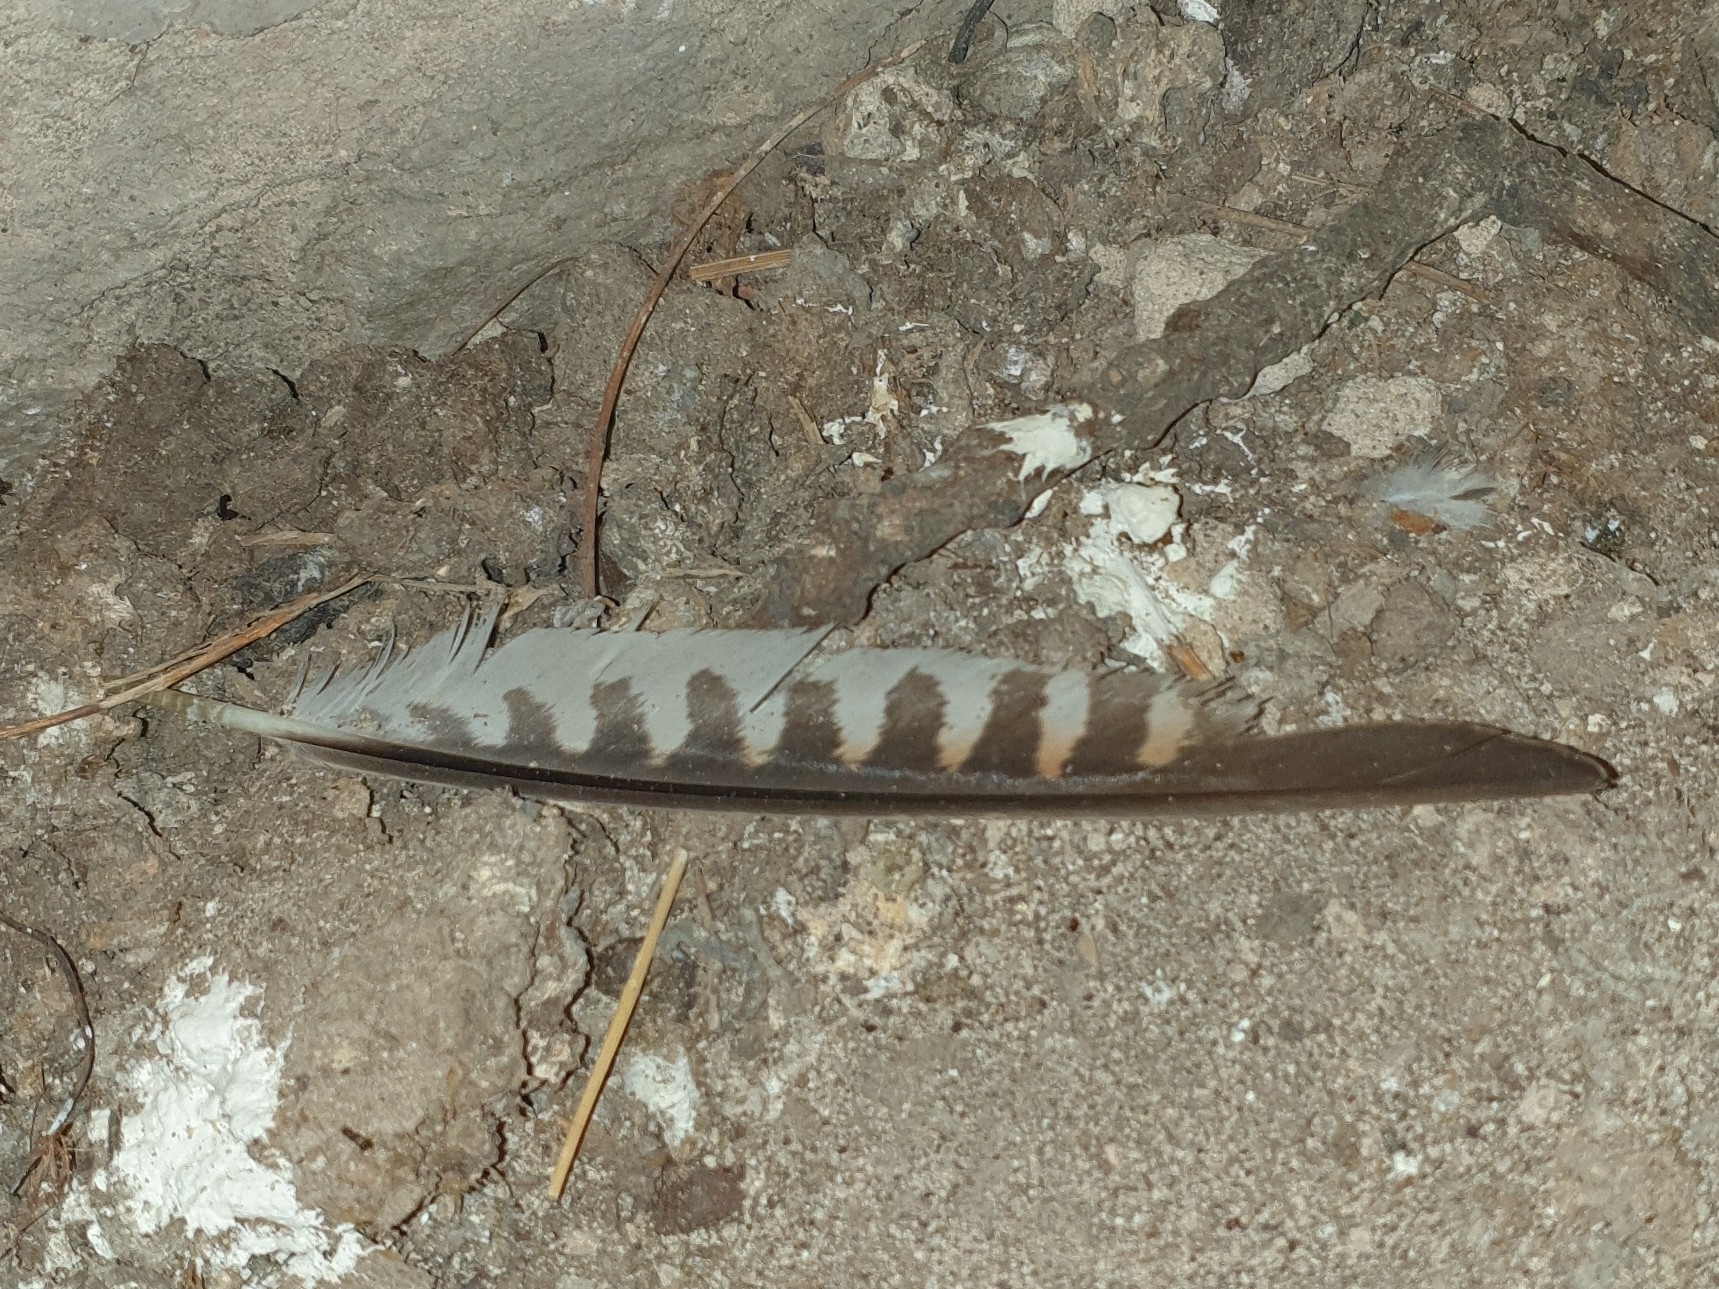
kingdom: Animalia
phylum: Chordata
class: Aves
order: Falconiformes
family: Falconidae
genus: Falco
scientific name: Falco tinnunculus
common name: Common kestrel
